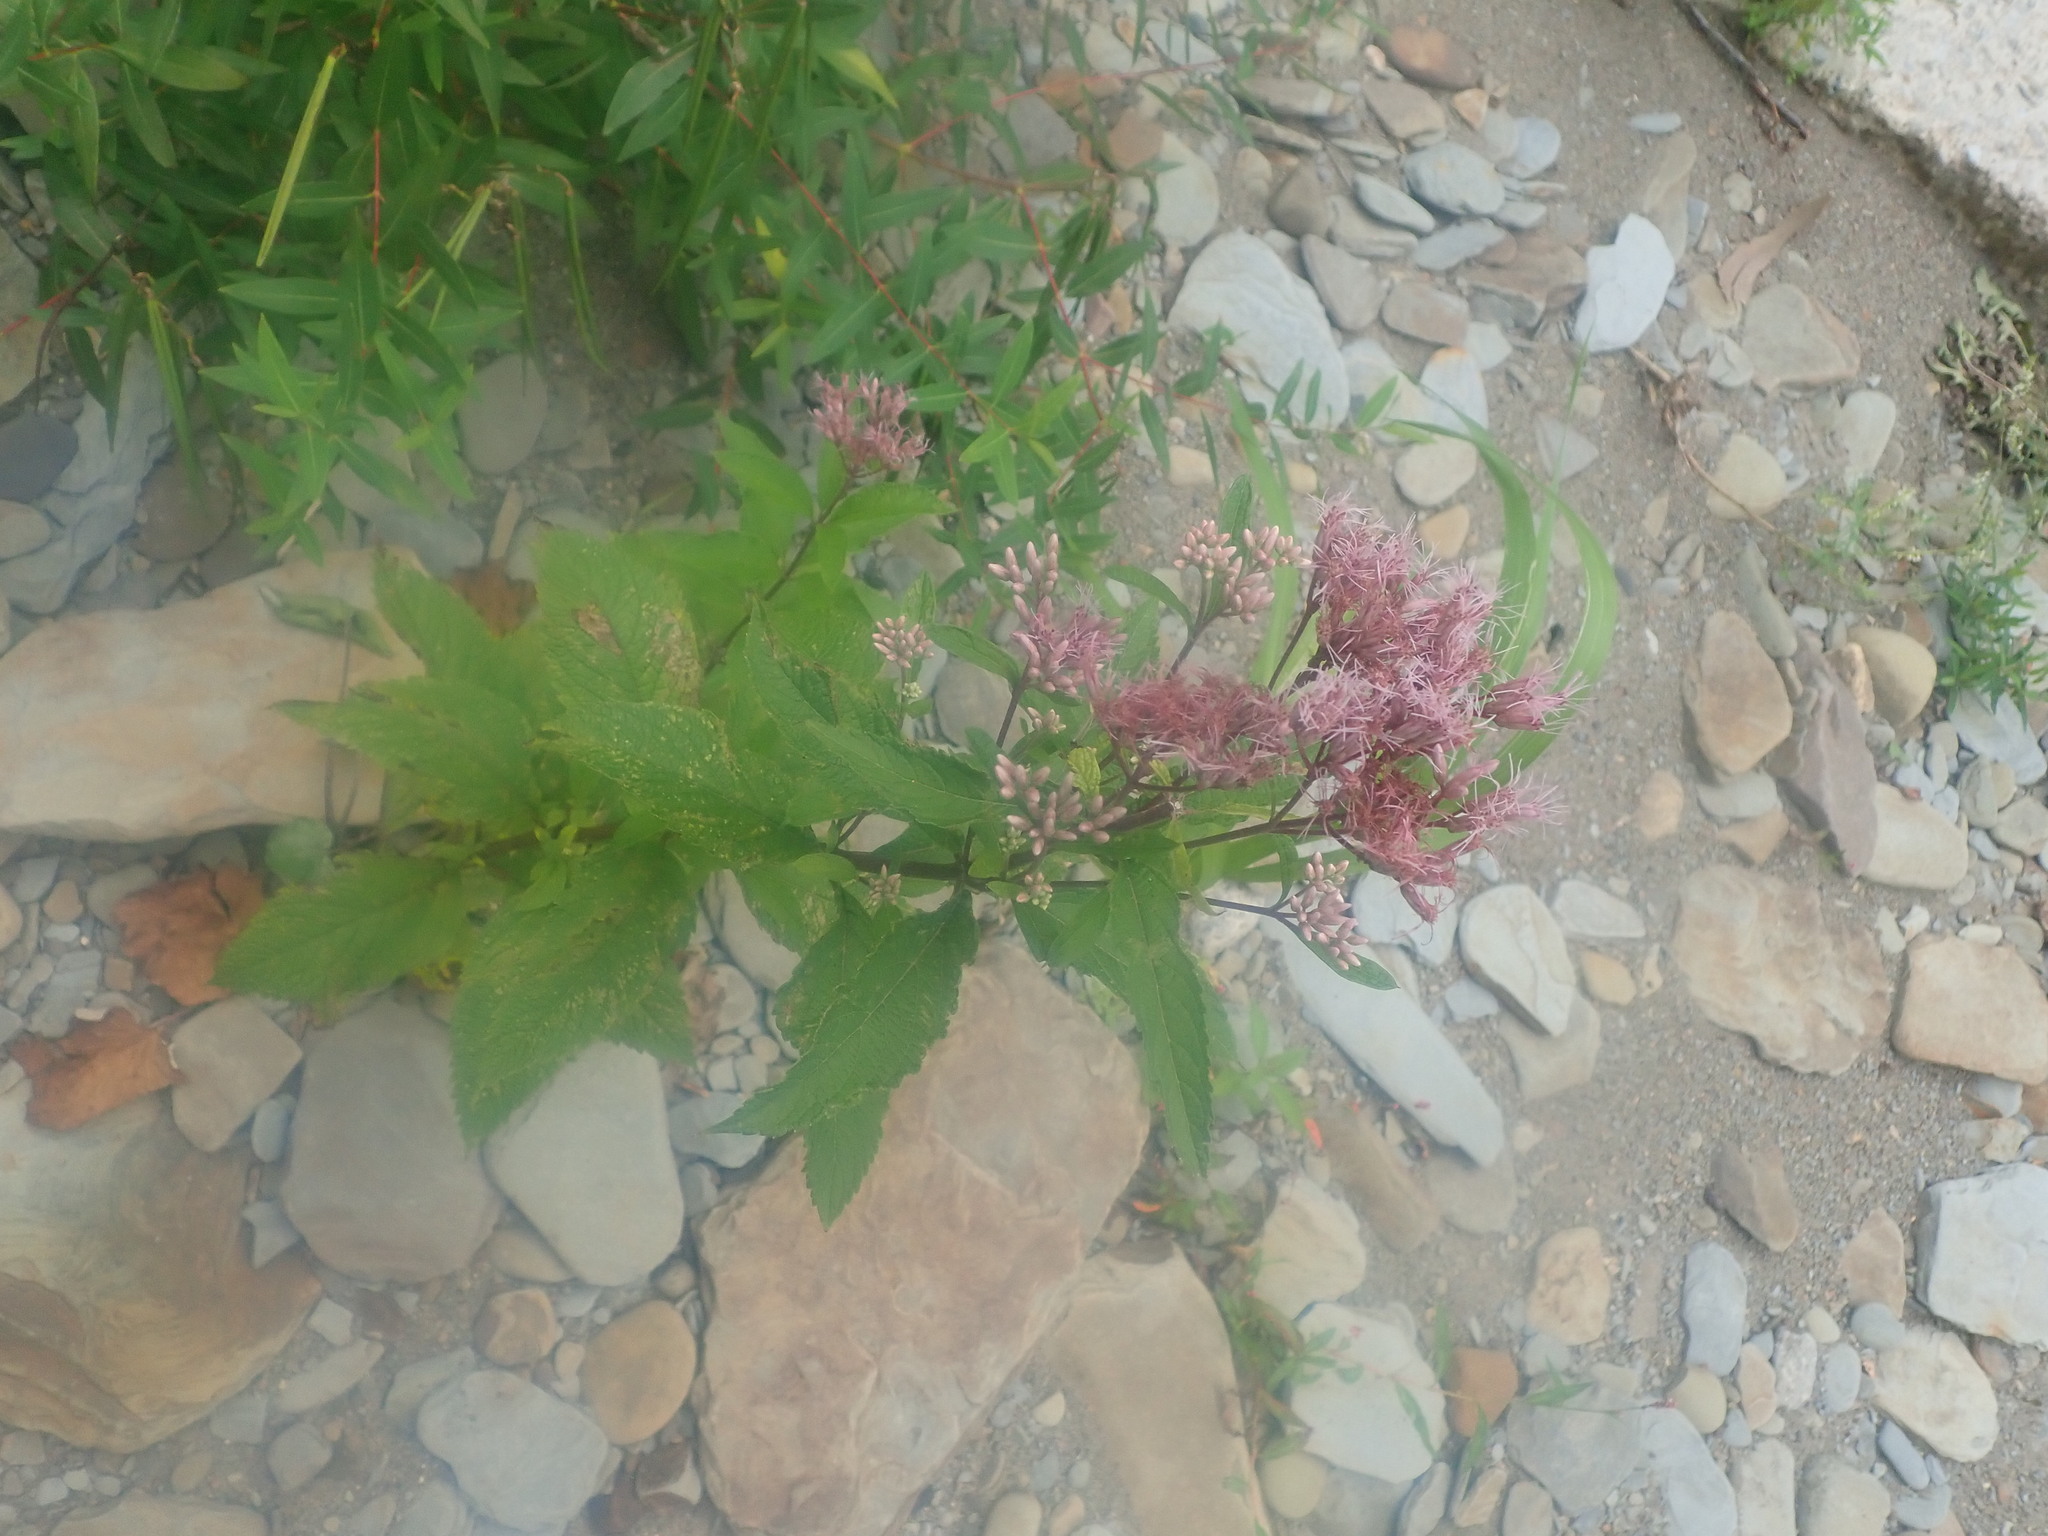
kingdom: Plantae
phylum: Tracheophyta
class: Magnoliopsida
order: Asterales
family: Asteraceae
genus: Eutrochium
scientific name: Eutrochium maculatum
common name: Spotted joe pye weed
